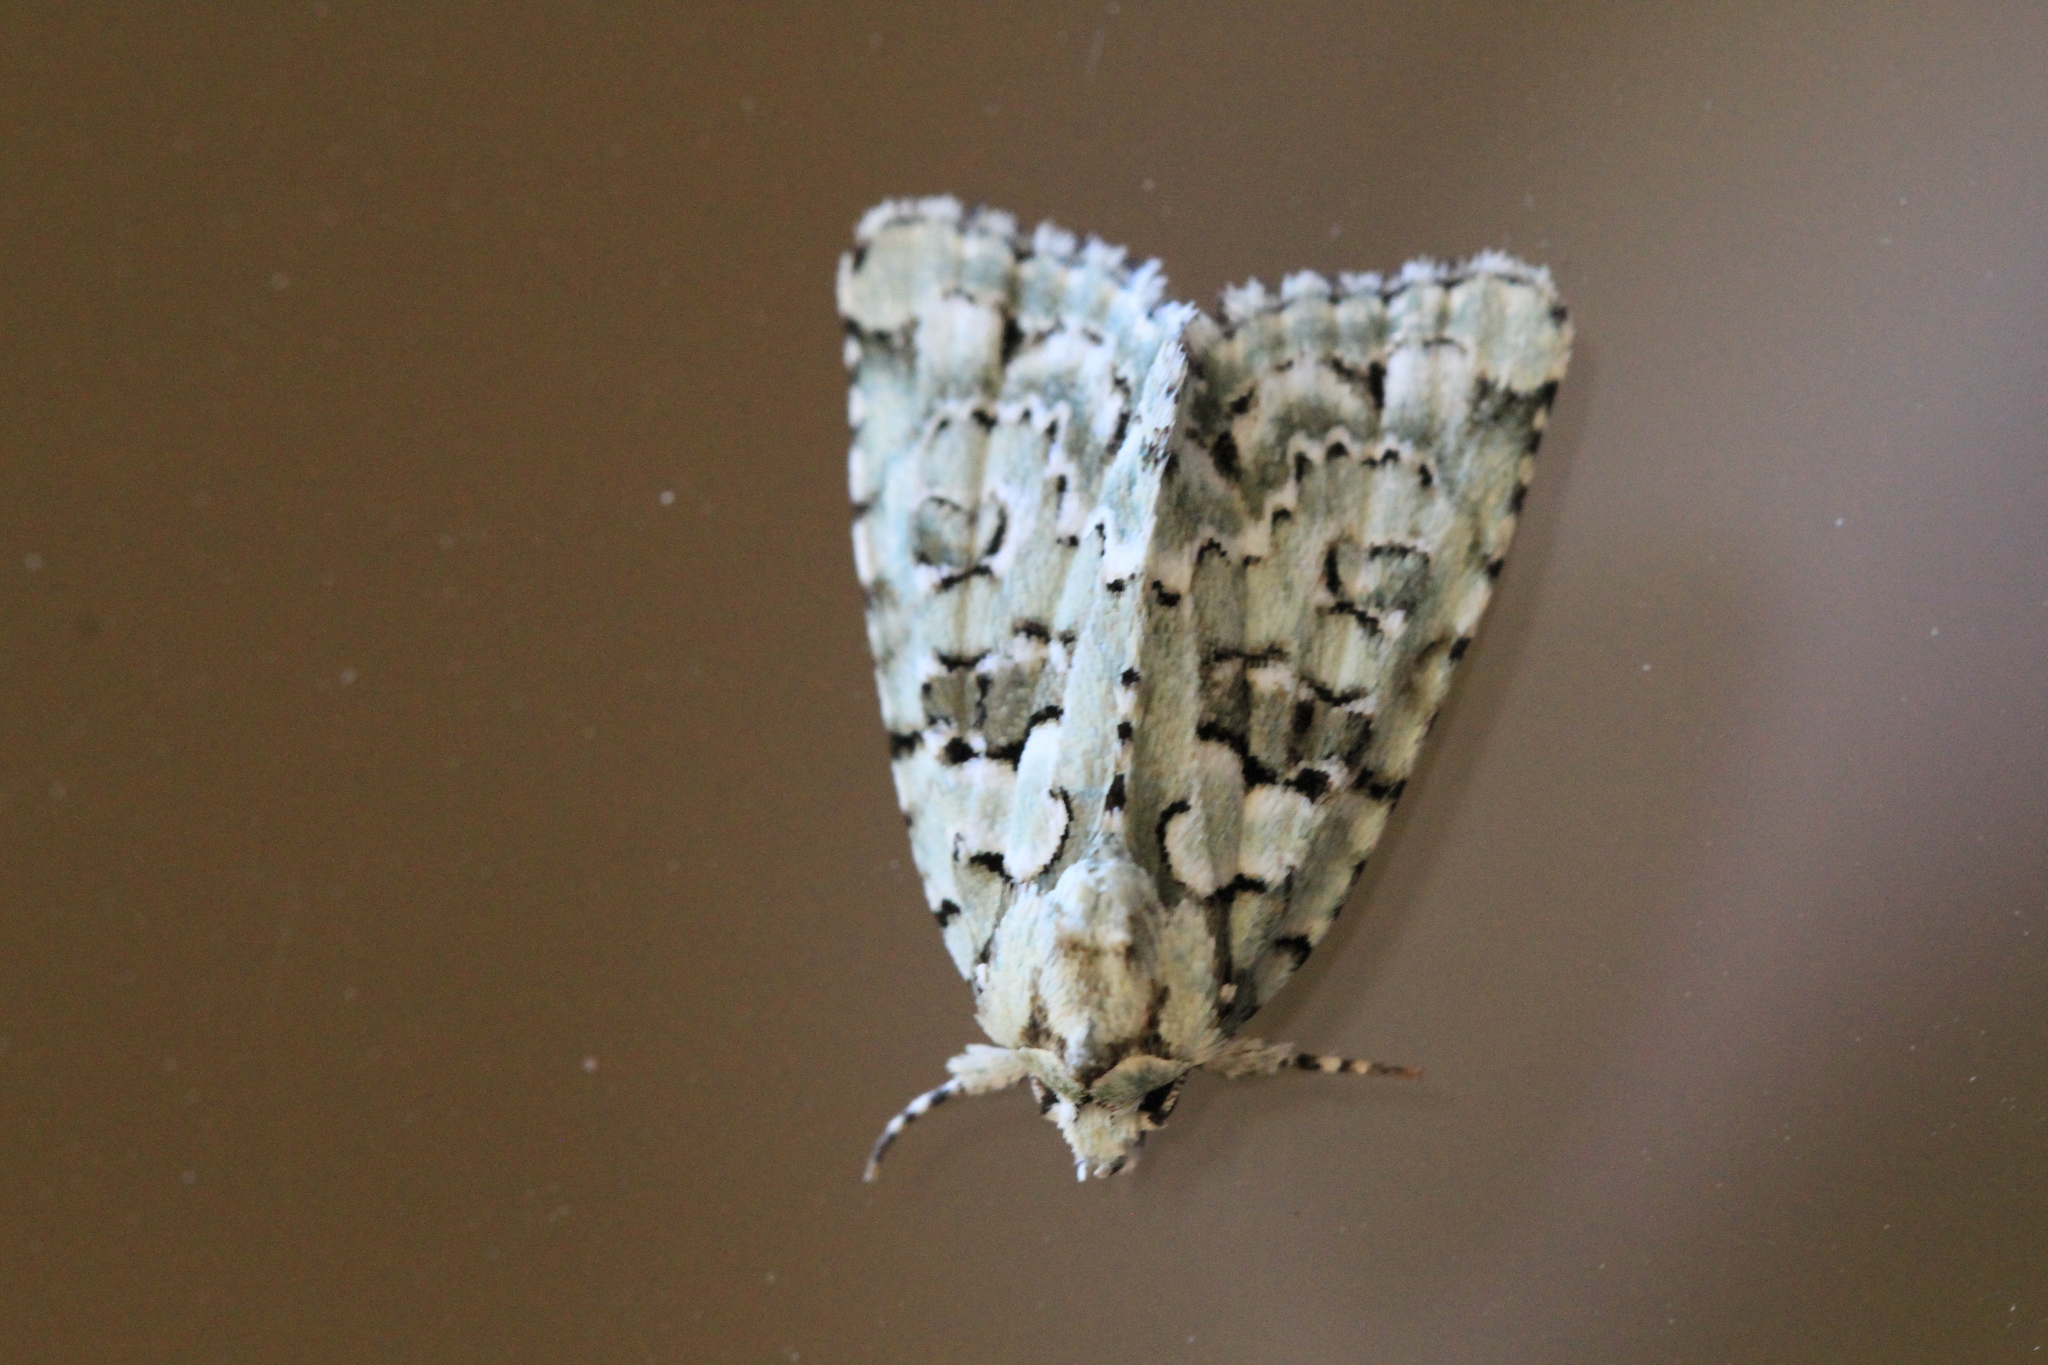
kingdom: Animalia
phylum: Arthropoda
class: Insecta
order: Lepidoptera
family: Noctuidae
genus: Nyctobrya
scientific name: Nyctobrya muralis
